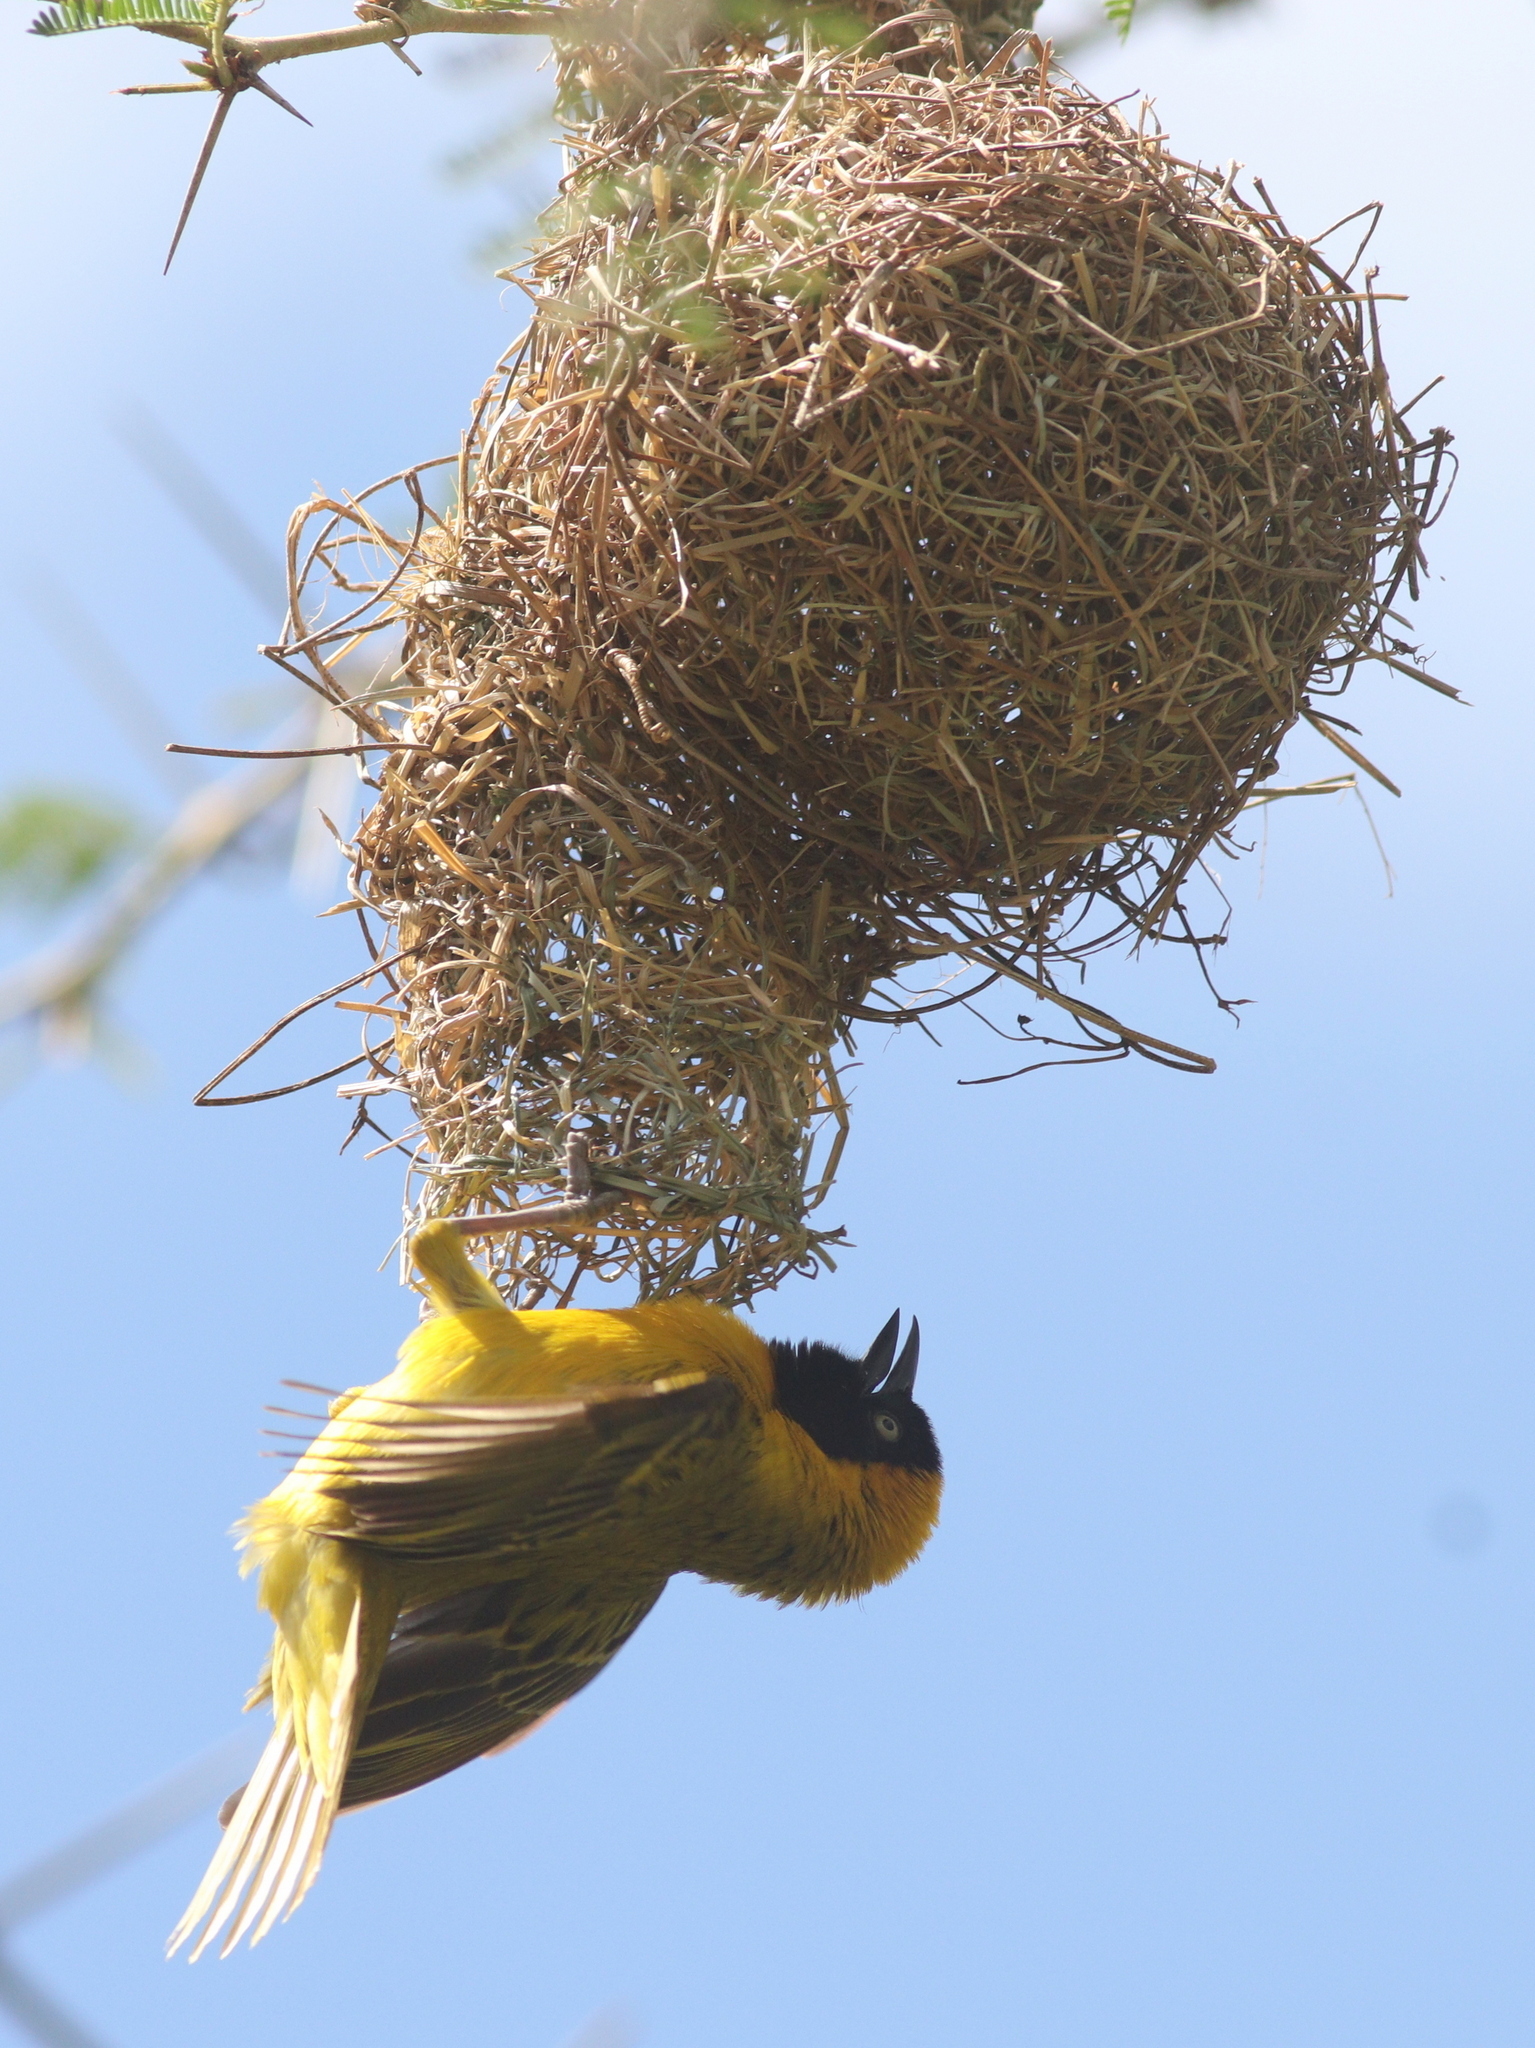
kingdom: Animalia
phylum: Chordata
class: Aves
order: Passeriformes
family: Ploceidae
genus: Ploceus
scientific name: Ploceus intermedius
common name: Lesser masked weaver
